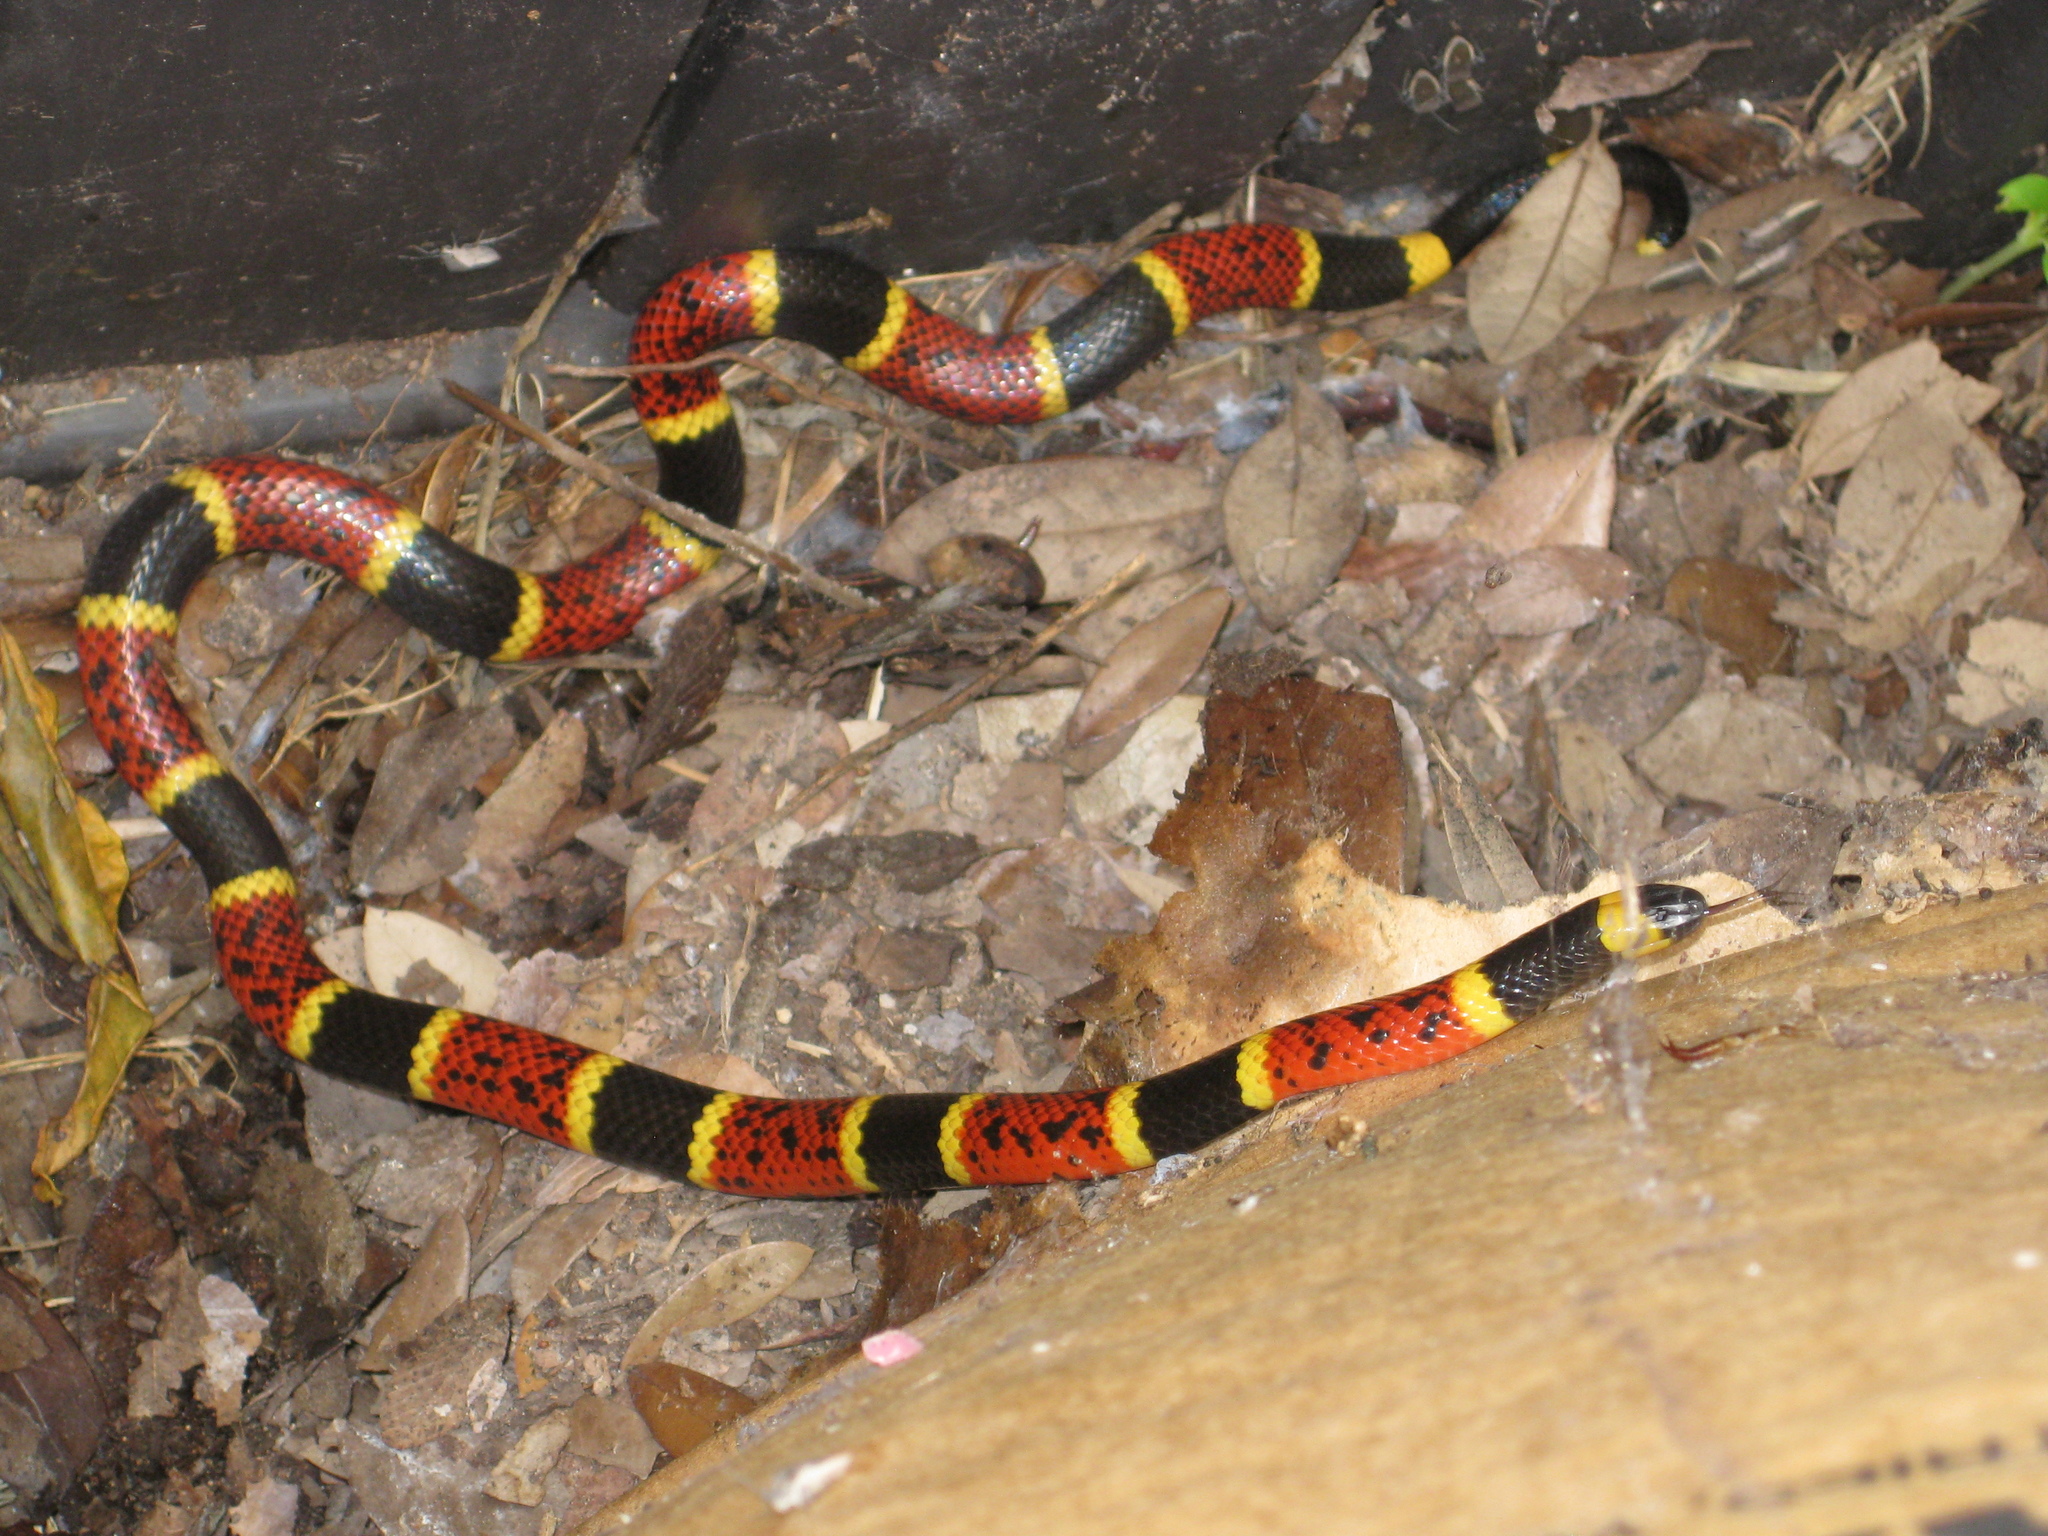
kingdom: Animalia
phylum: Chordata
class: Squamata
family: Elapidae
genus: Micrurus
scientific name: Micrurus tener
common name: Texas coral snake
